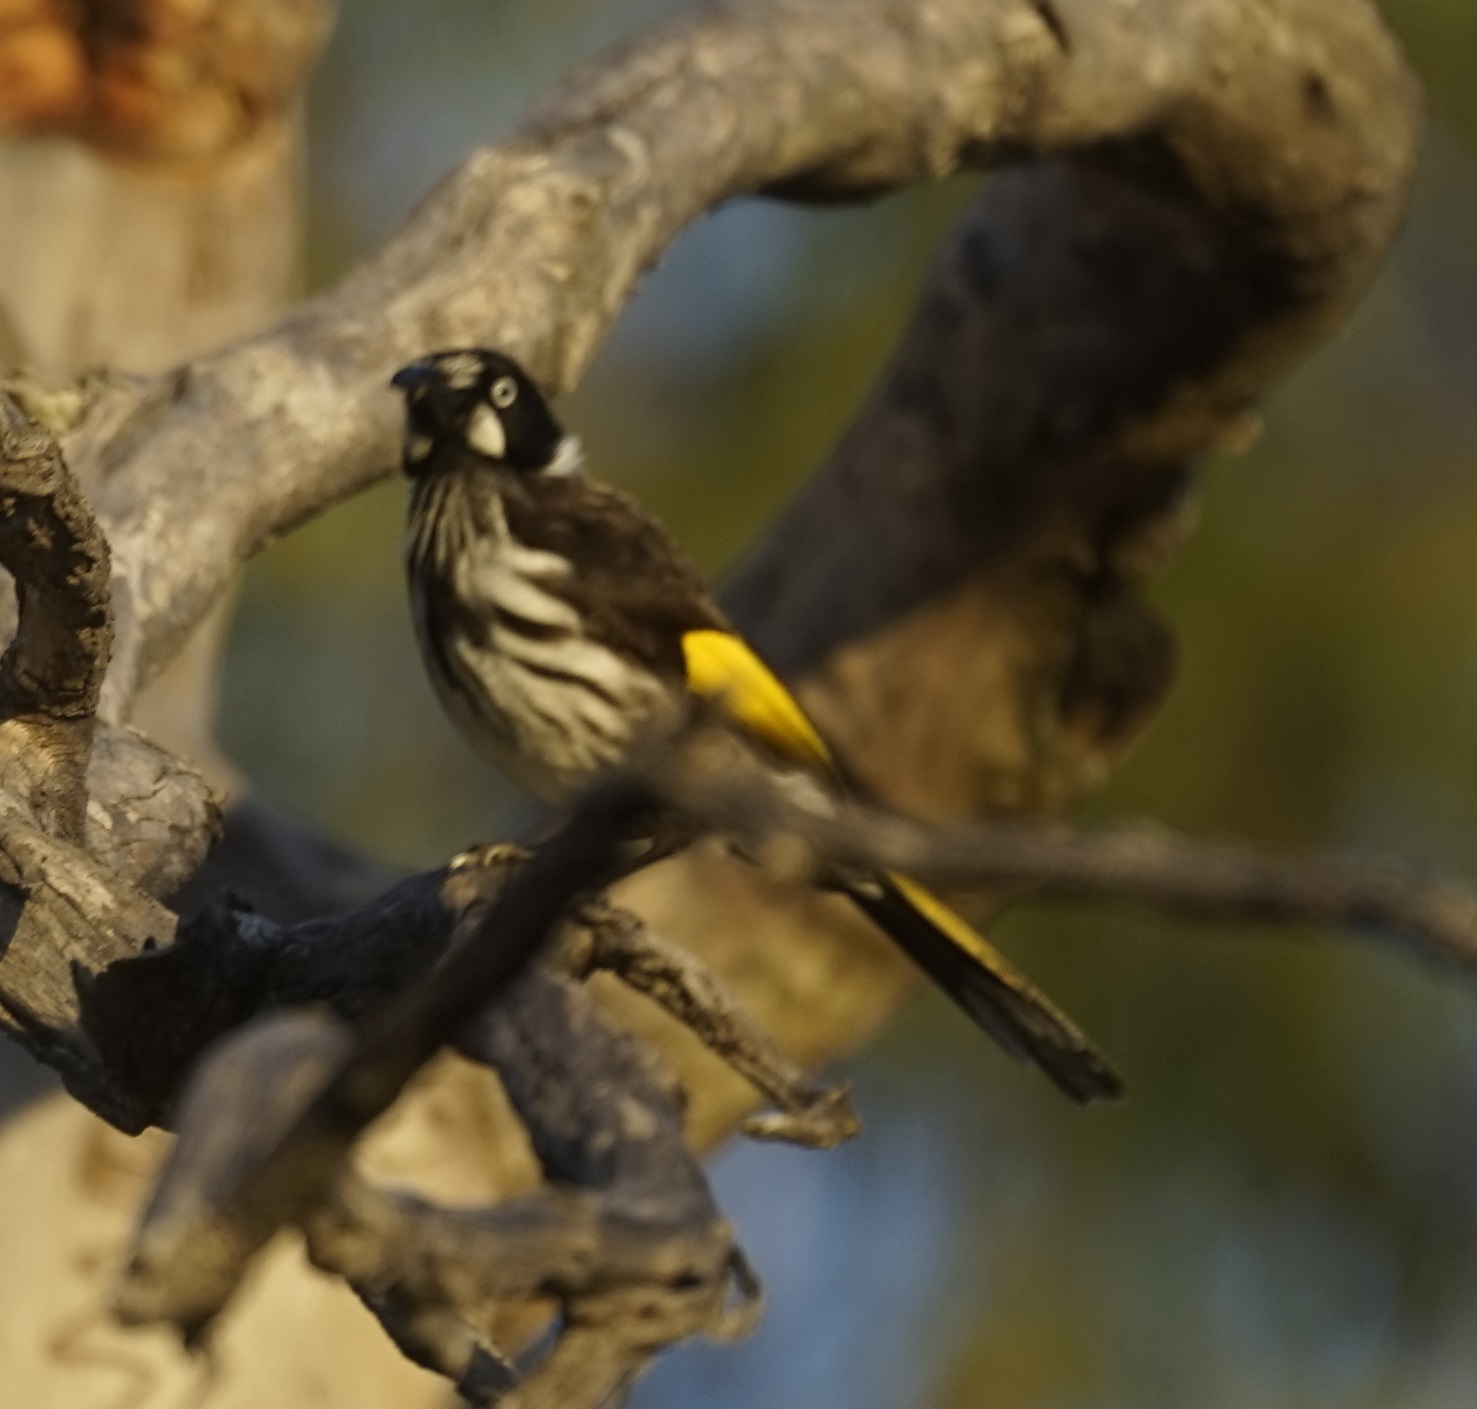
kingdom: Animalia
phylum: Chordata
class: Aves
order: Passeriformes
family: Meliphagidae
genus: Phylidonyris
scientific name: Phylidonyris novaehollandiae
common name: New holland honeyeater
